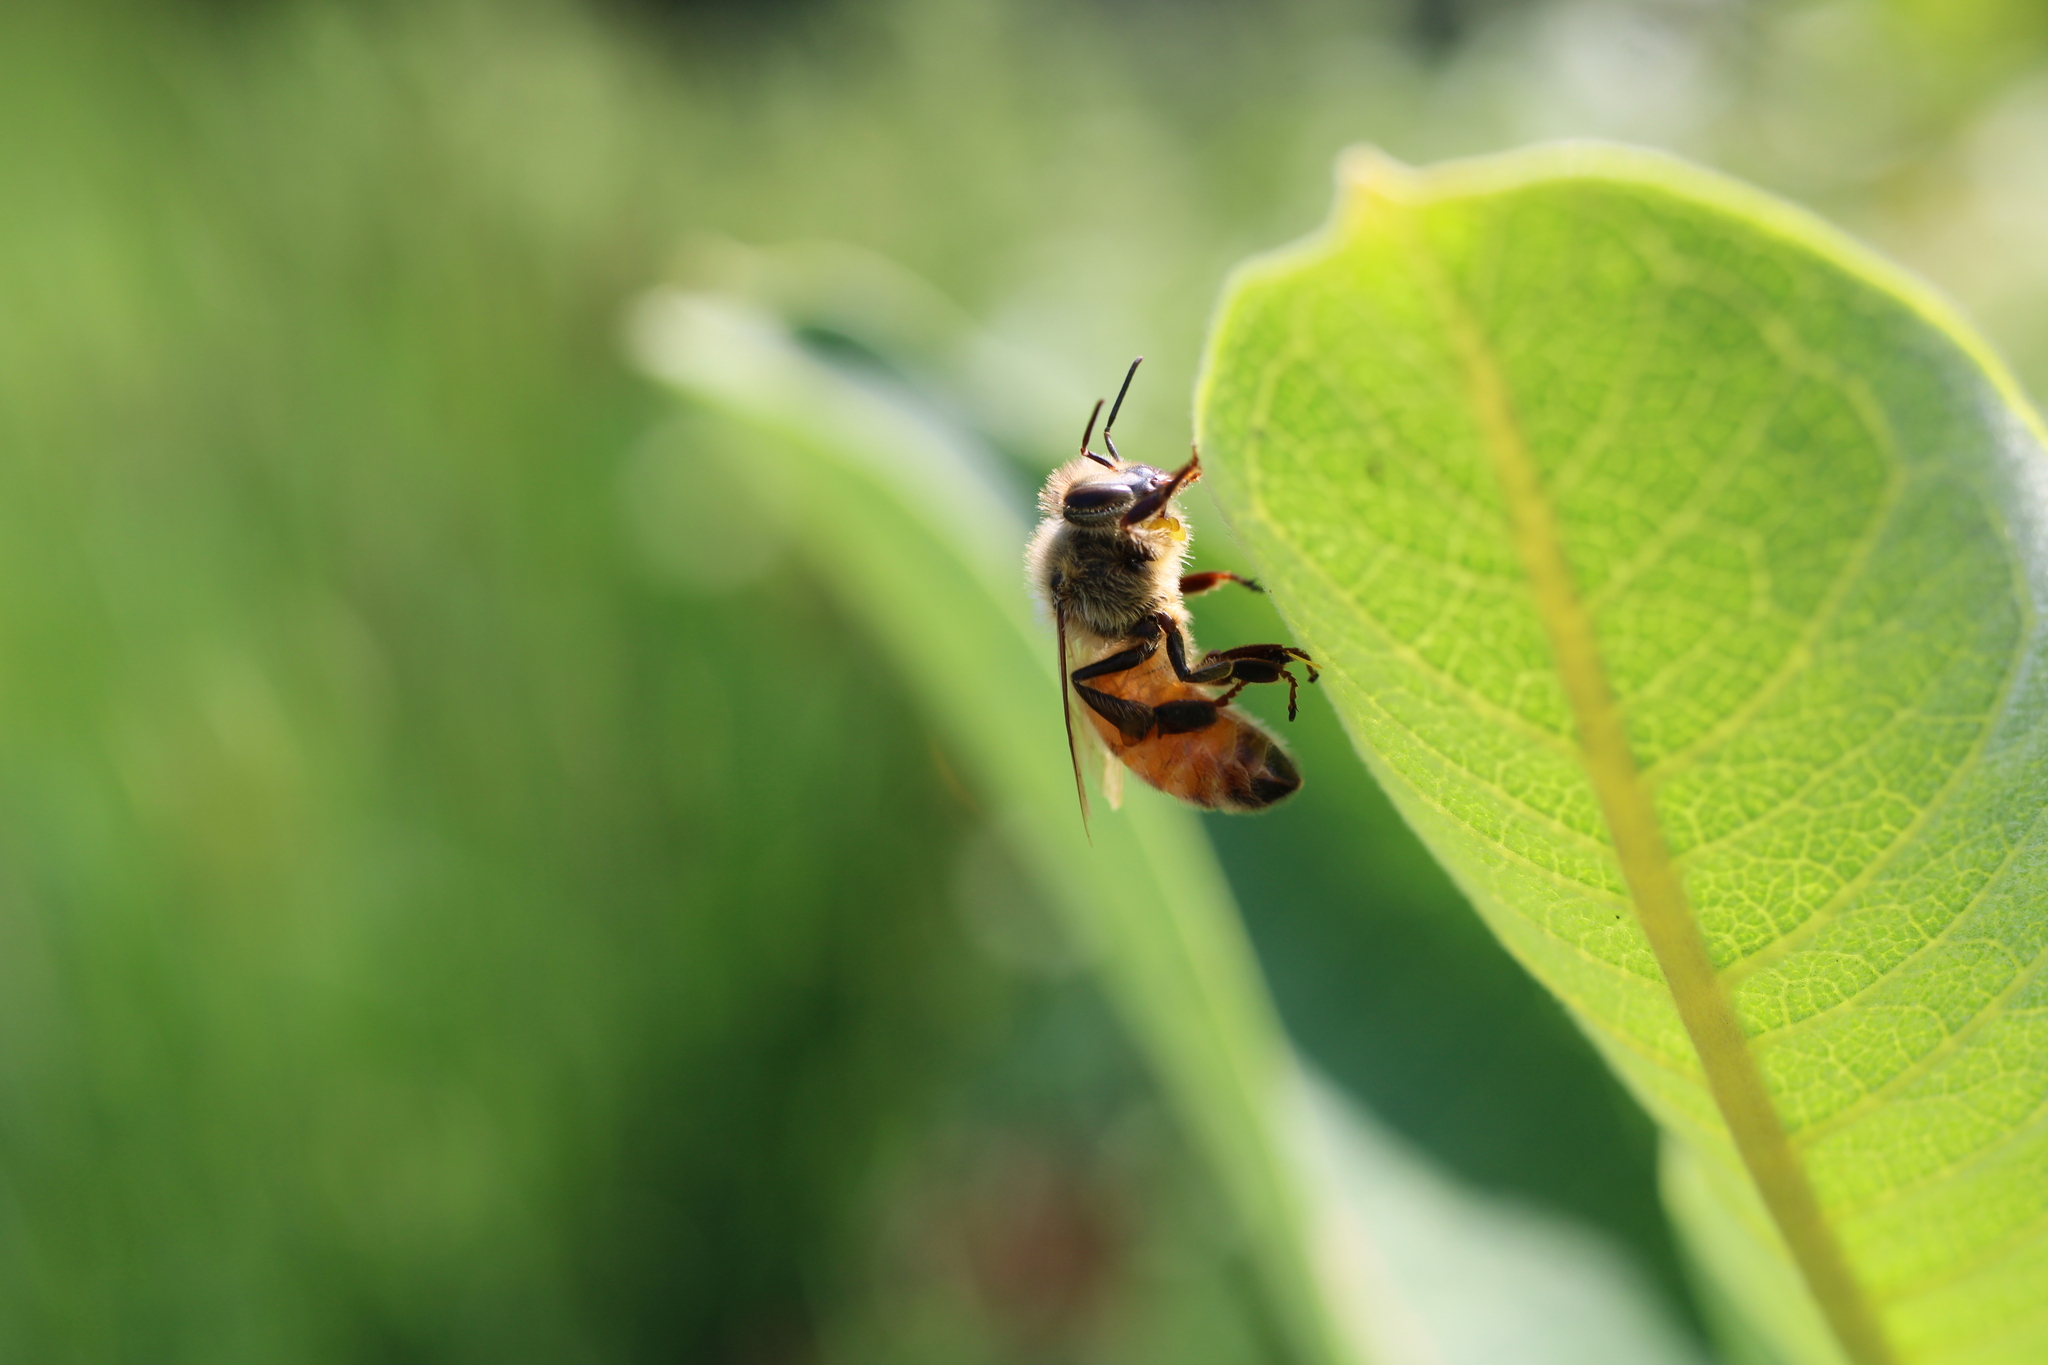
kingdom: Animalia
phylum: Arthropoda
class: Insecta
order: Hymenoptera
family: Apidae
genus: Apis
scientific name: Apis mellifera
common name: Honey bee
